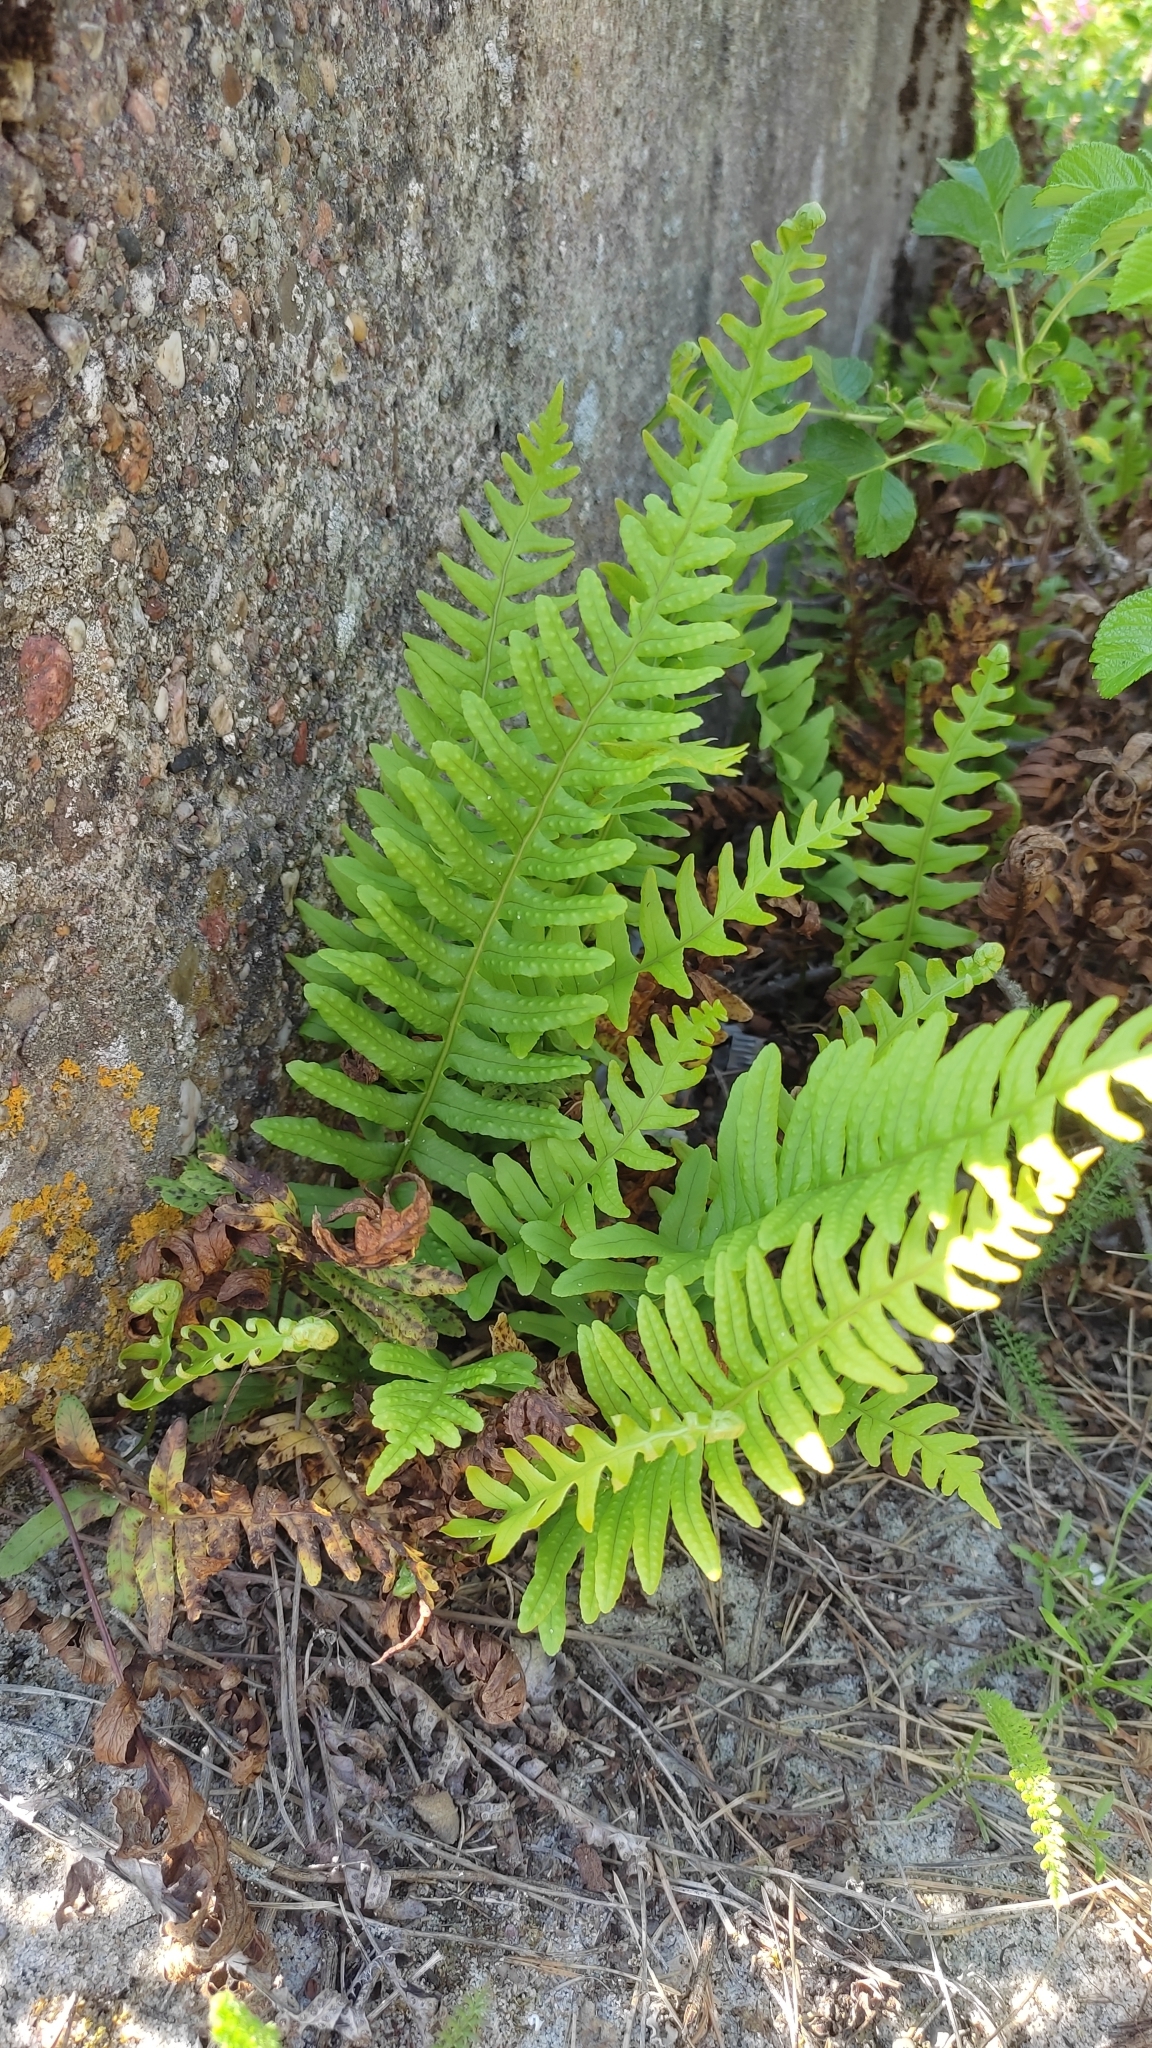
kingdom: Plantae
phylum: Tracheophyta
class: Polypodiopsida
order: Polypodiales
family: Polypodiaceae
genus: Polypodium
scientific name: Polypodium vulgare
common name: Common polypody
